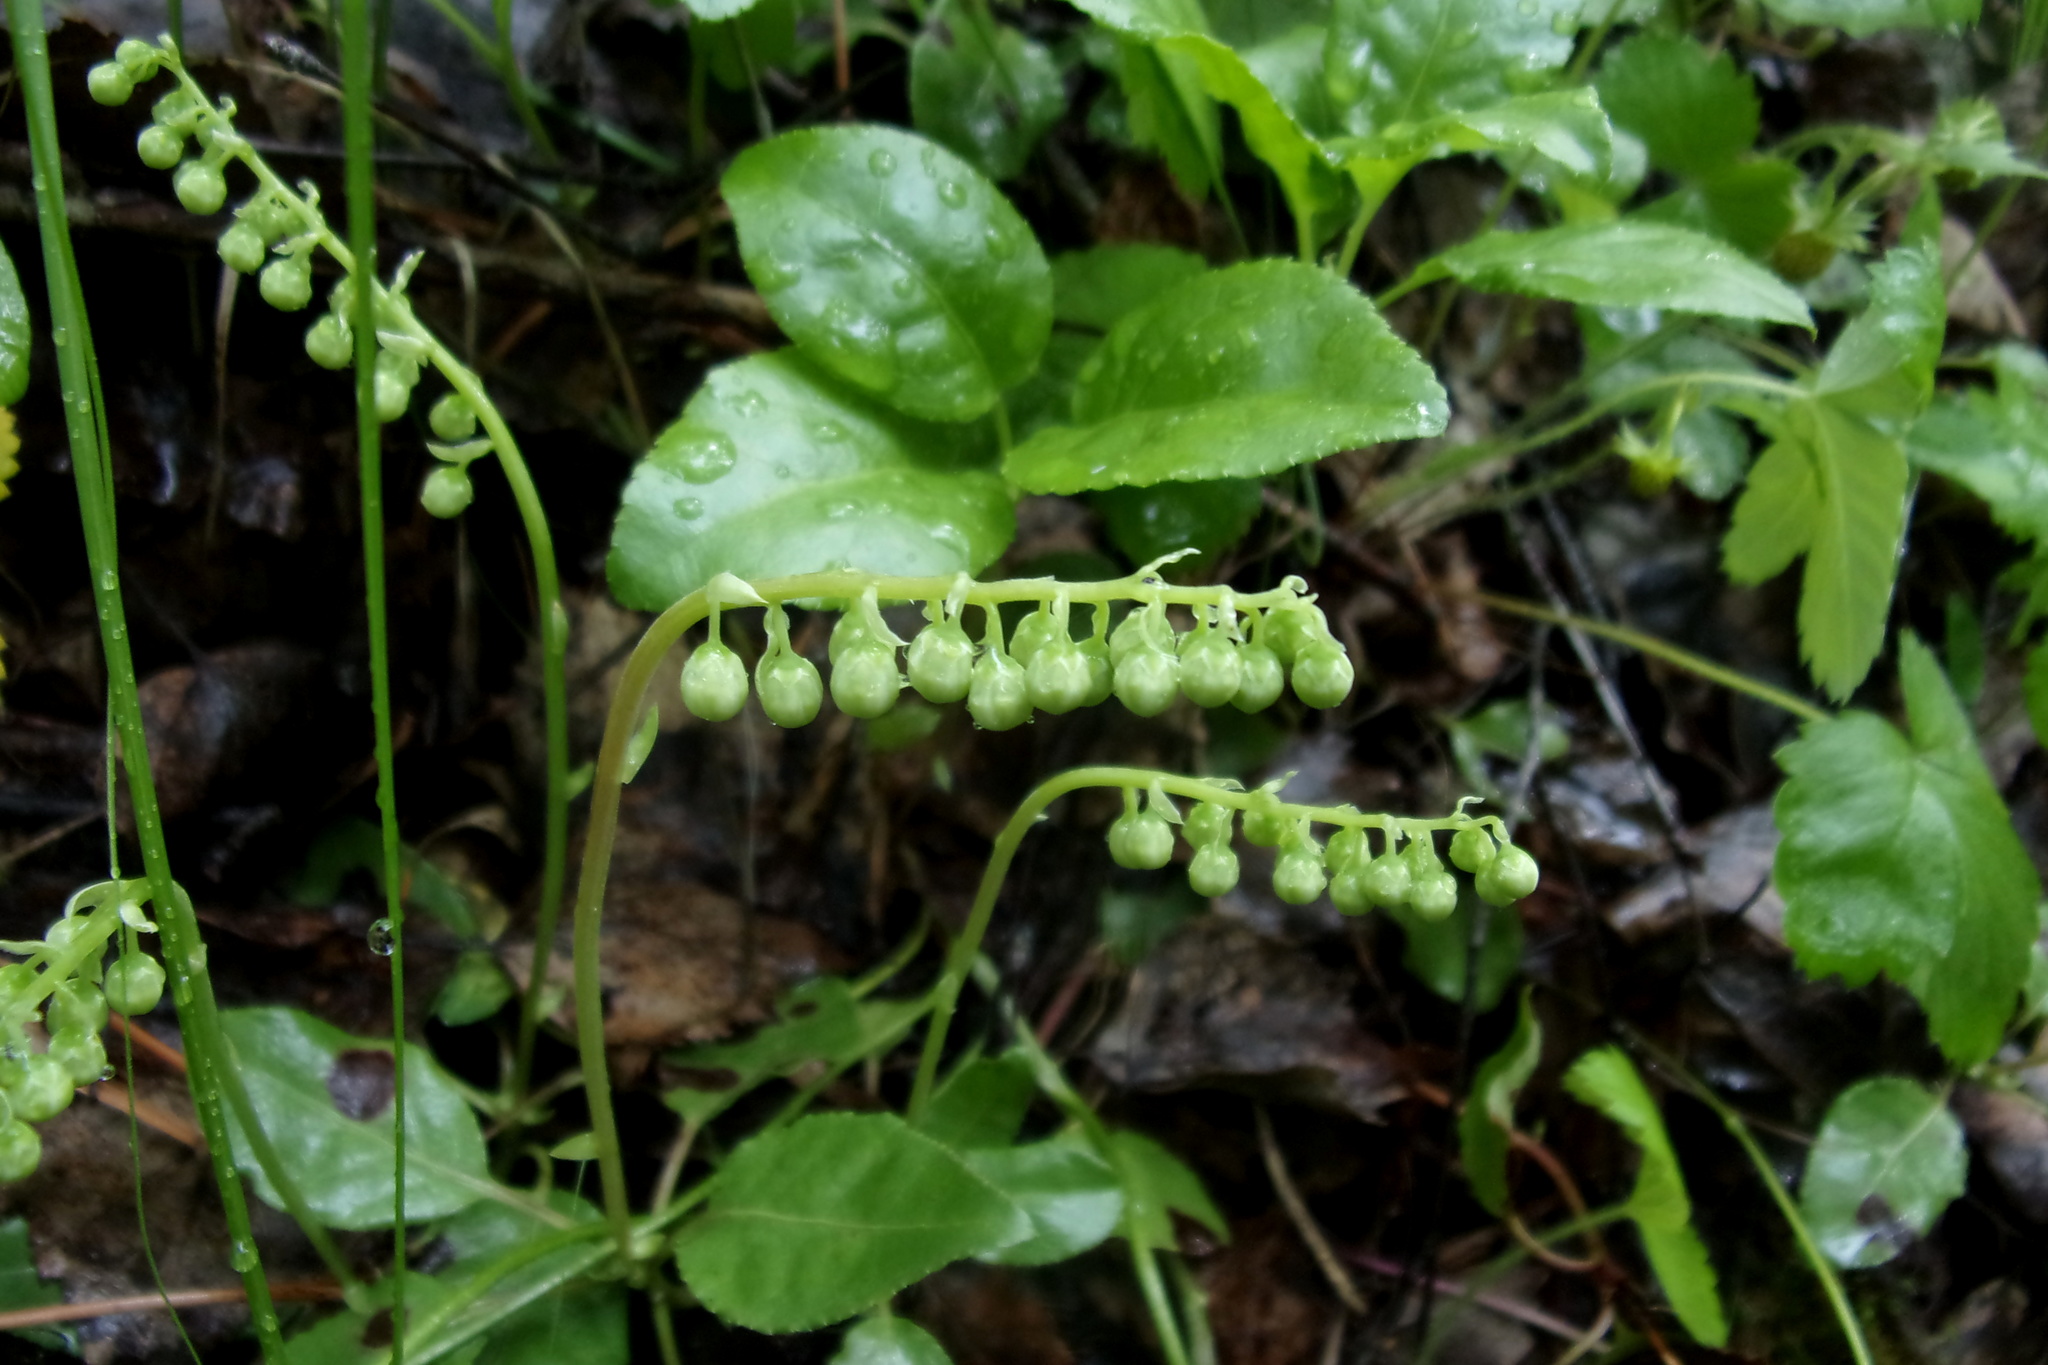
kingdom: Plantae
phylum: Tracheophyta
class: Magnoliopsida
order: Ericales
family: Ericaceae
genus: Orthilia
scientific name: Orthilia secunda
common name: One-sided orthilia
